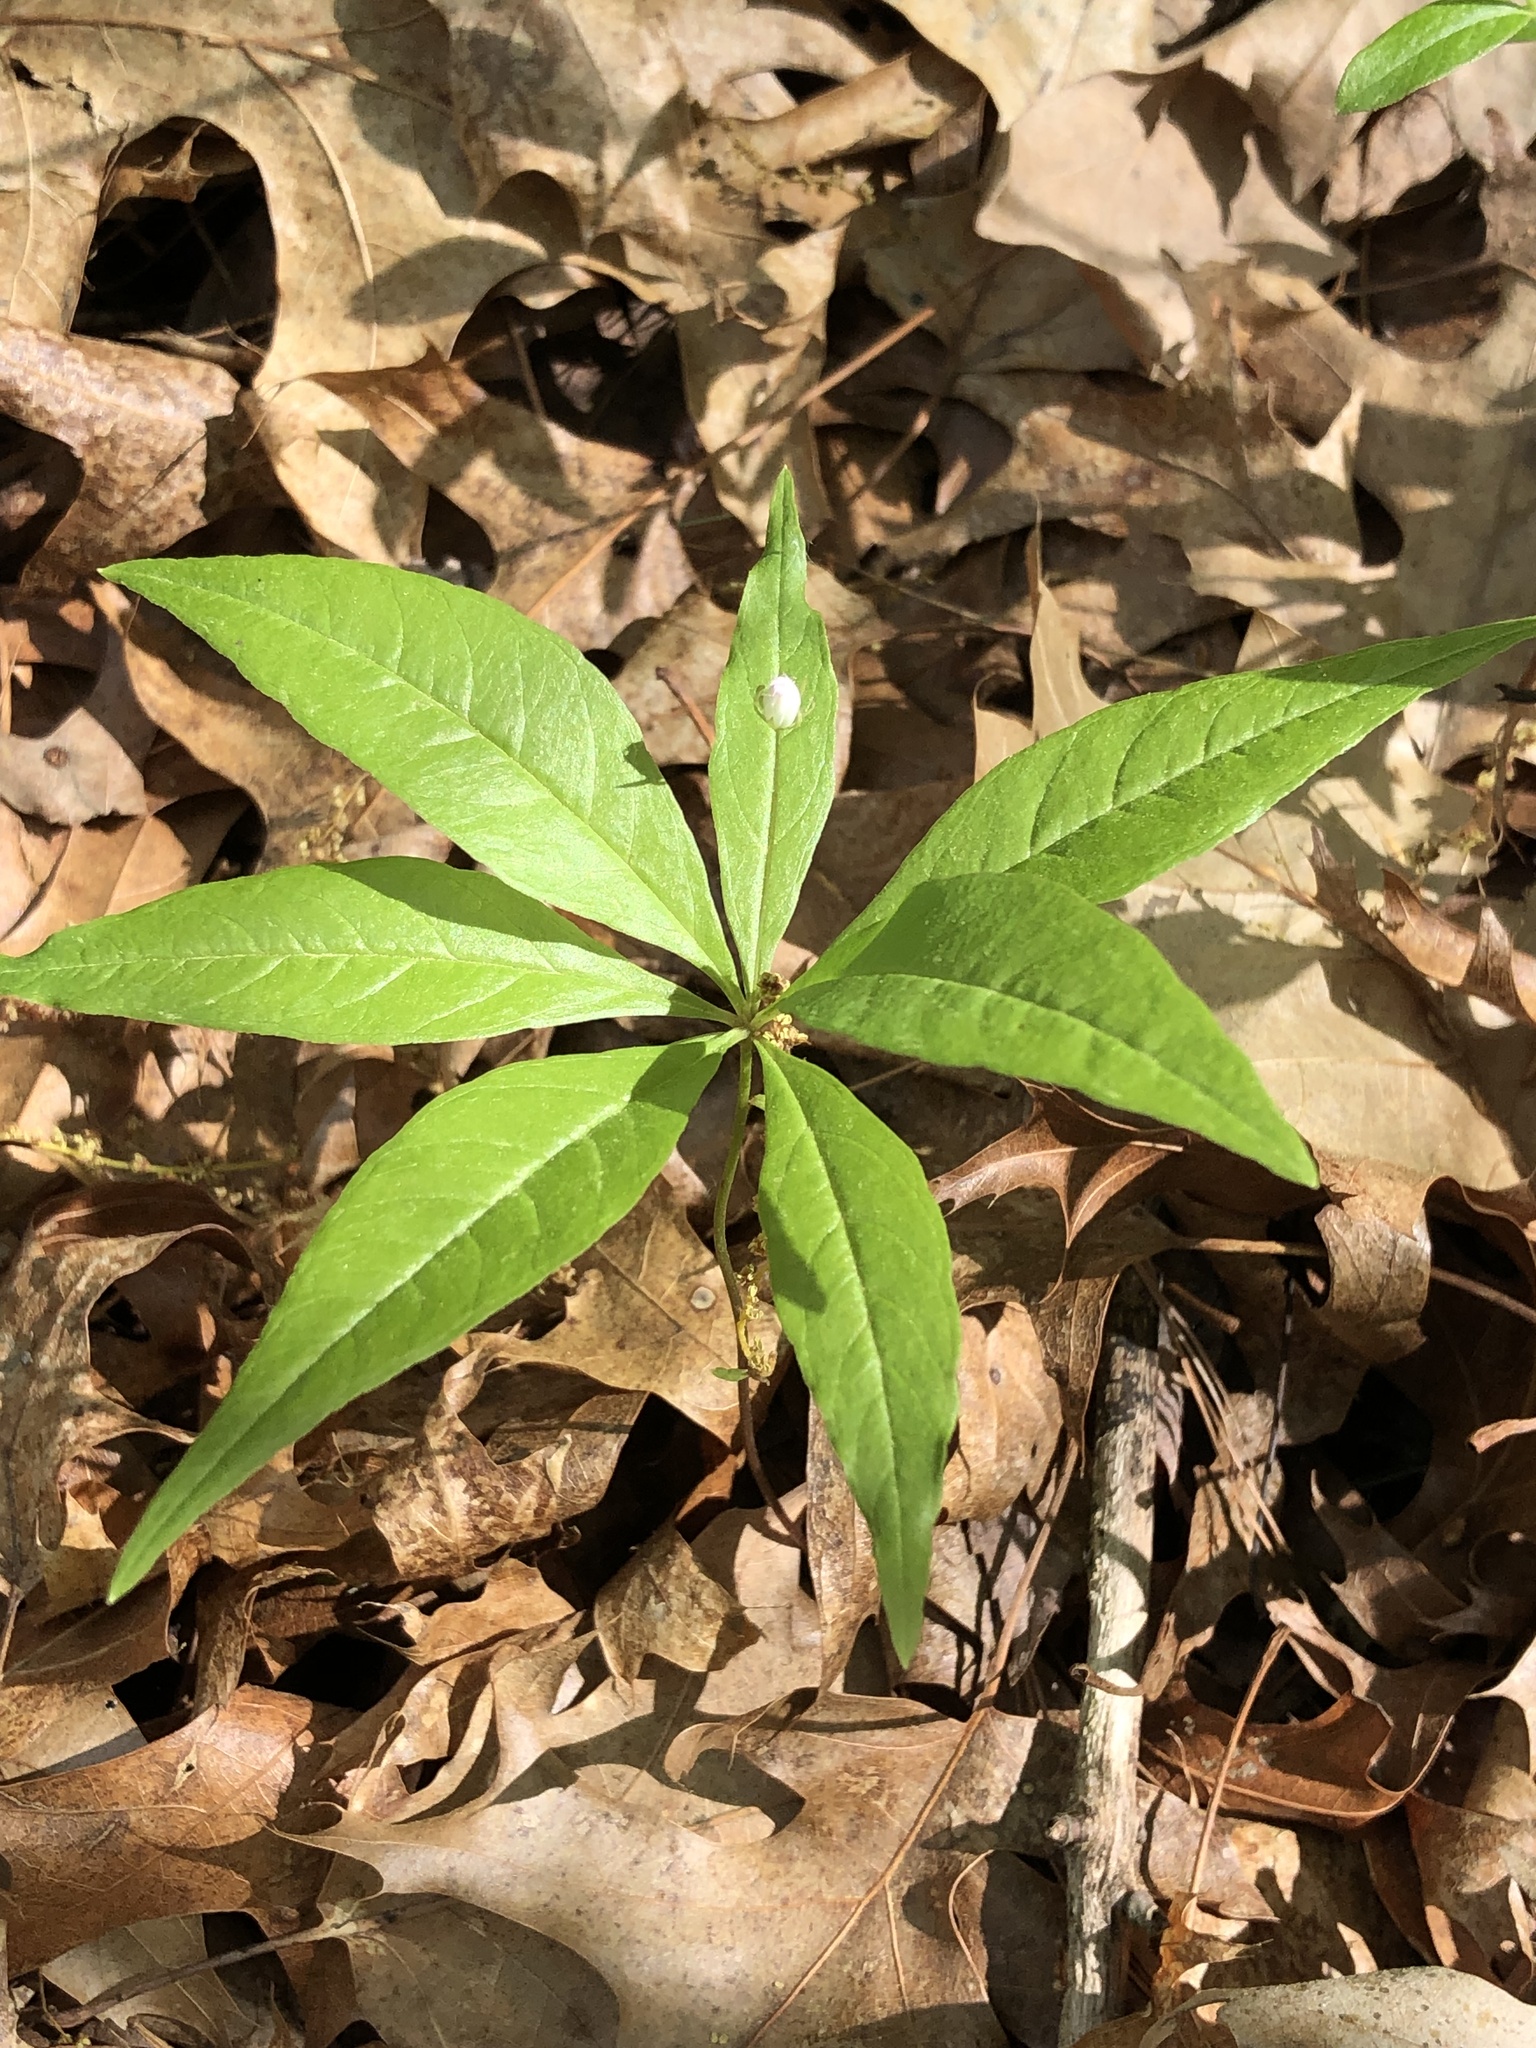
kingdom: Plantae
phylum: Tracheophyta
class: Magnoliopsida
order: Ericales
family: Primulaceae
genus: Lysimachia
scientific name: Lysimachia borealis
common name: American starflower
